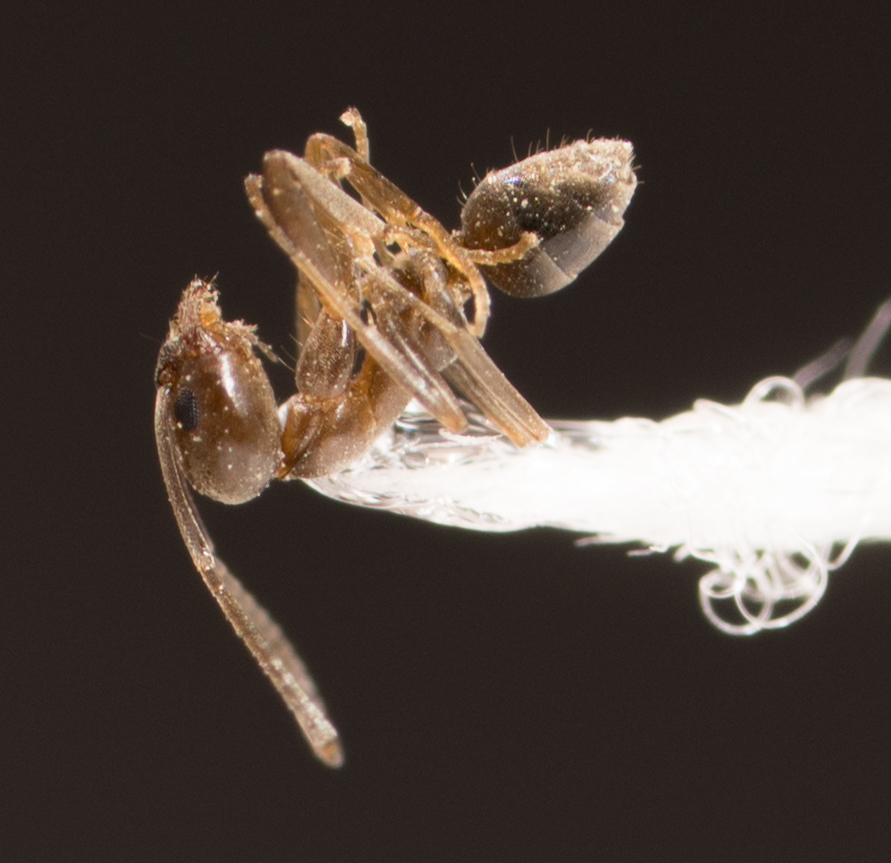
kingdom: Animalia
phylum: Arthropoda
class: Insecta
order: Hymenoptera
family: Formicidae
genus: Linepithema
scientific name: Linepithema humile
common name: Argentine ant
